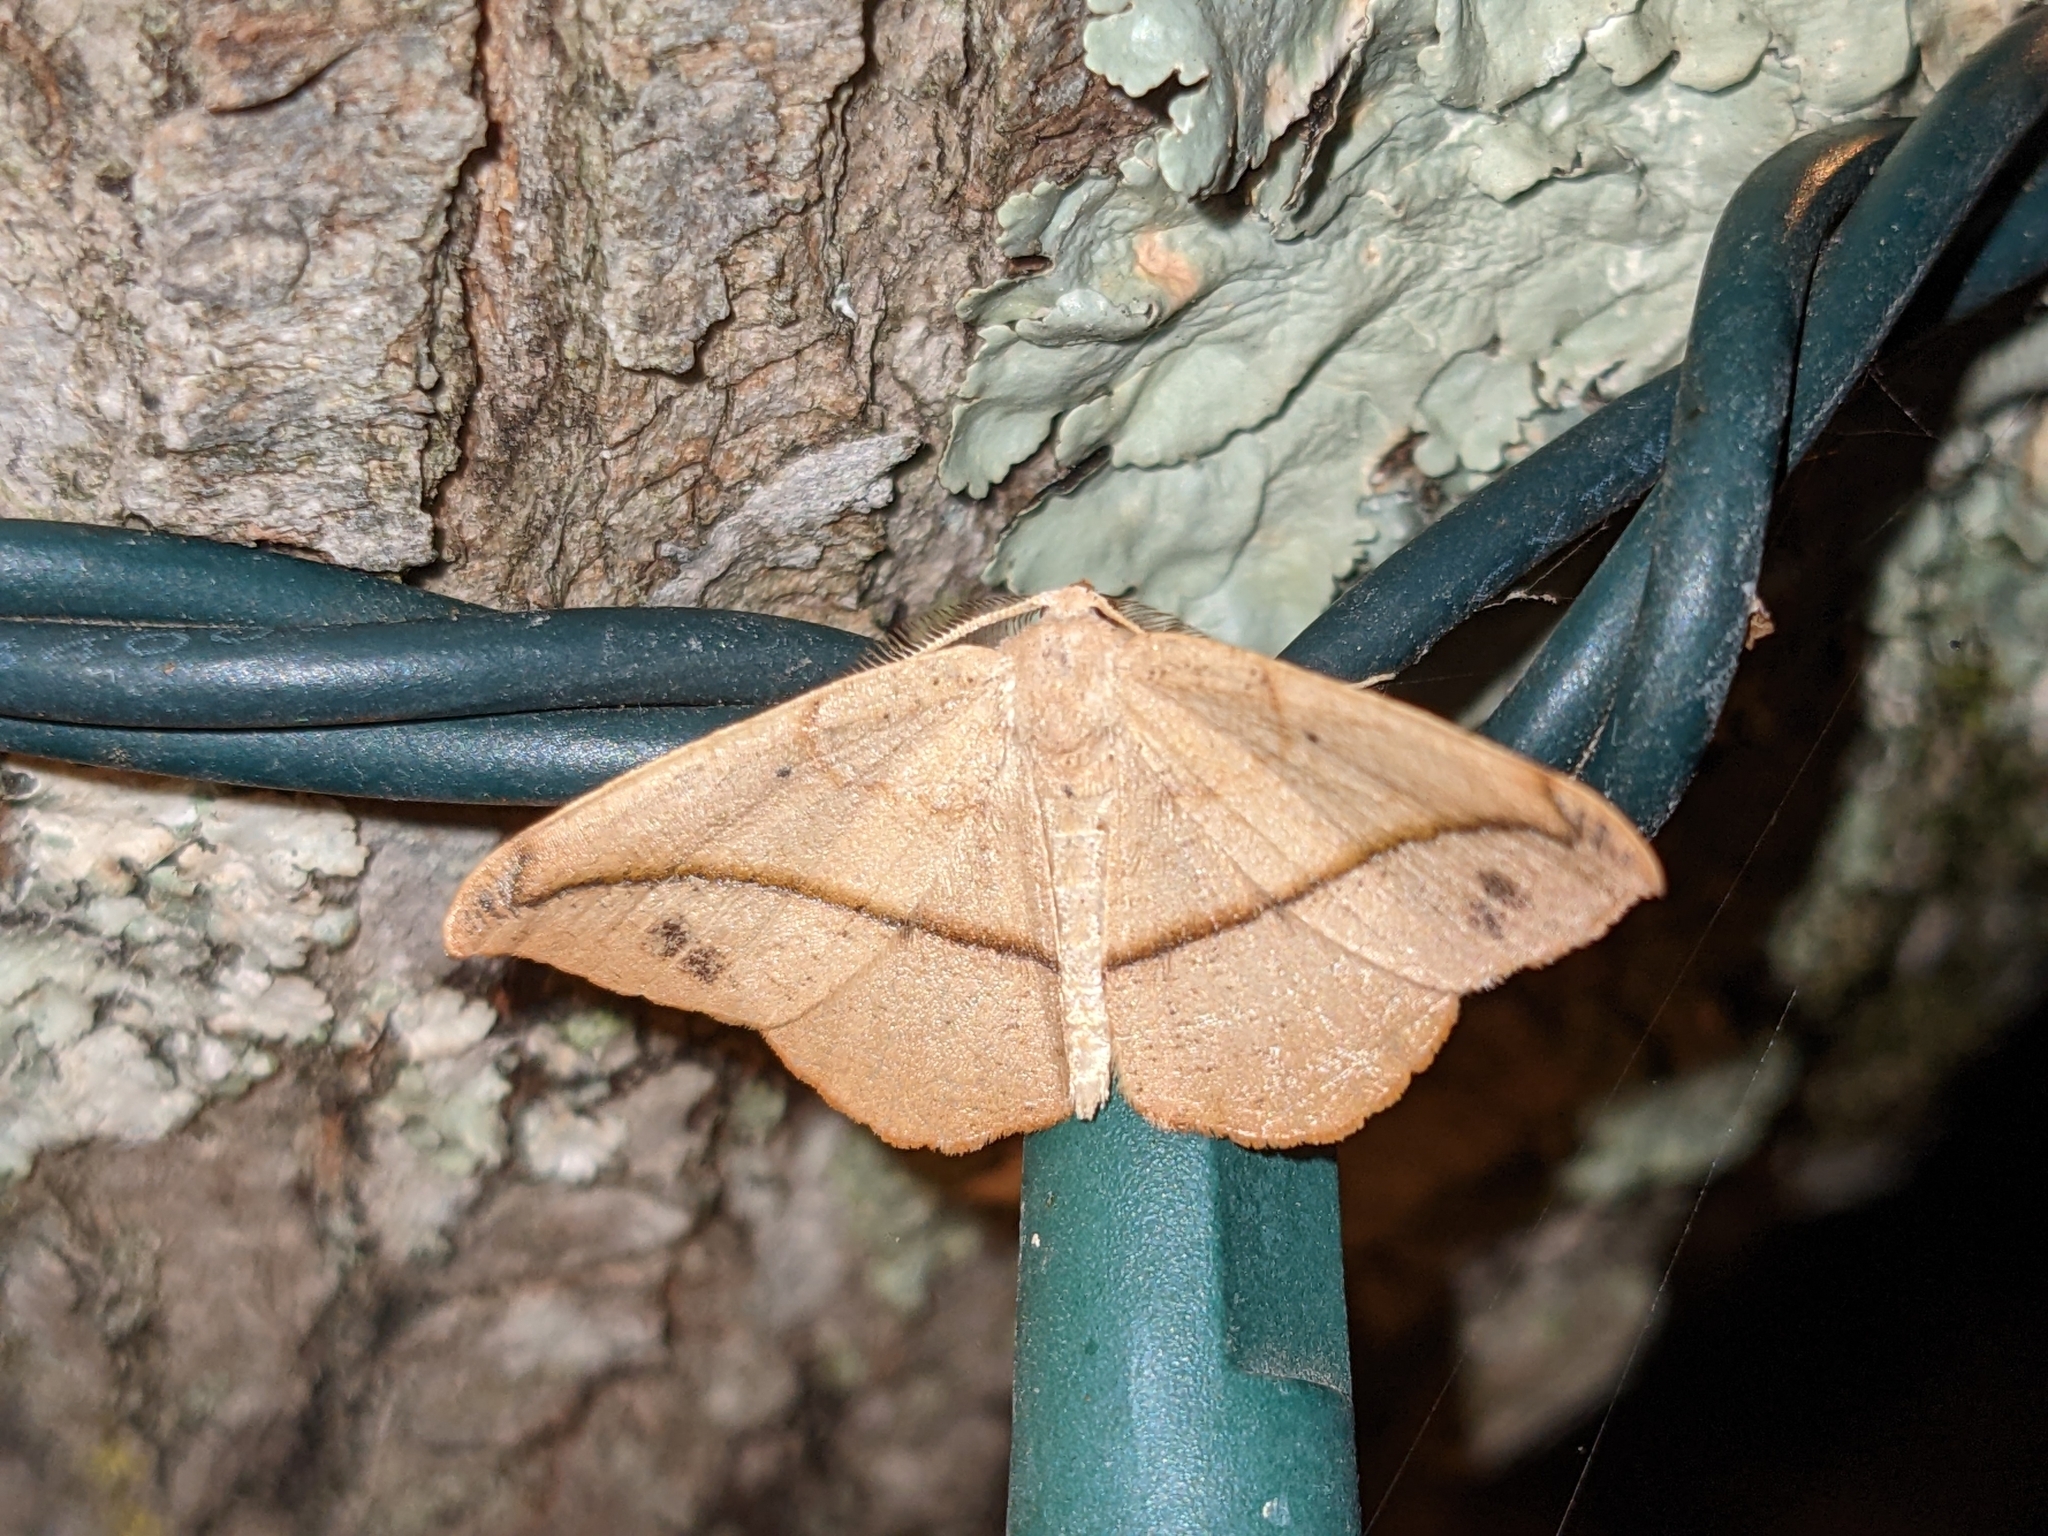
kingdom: Animalia
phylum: Arthropoda
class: Insecta
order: Lepidoptera
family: Geometridae
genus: Patalene
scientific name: Patalene olyzonaria
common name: Juniper geometer moth
